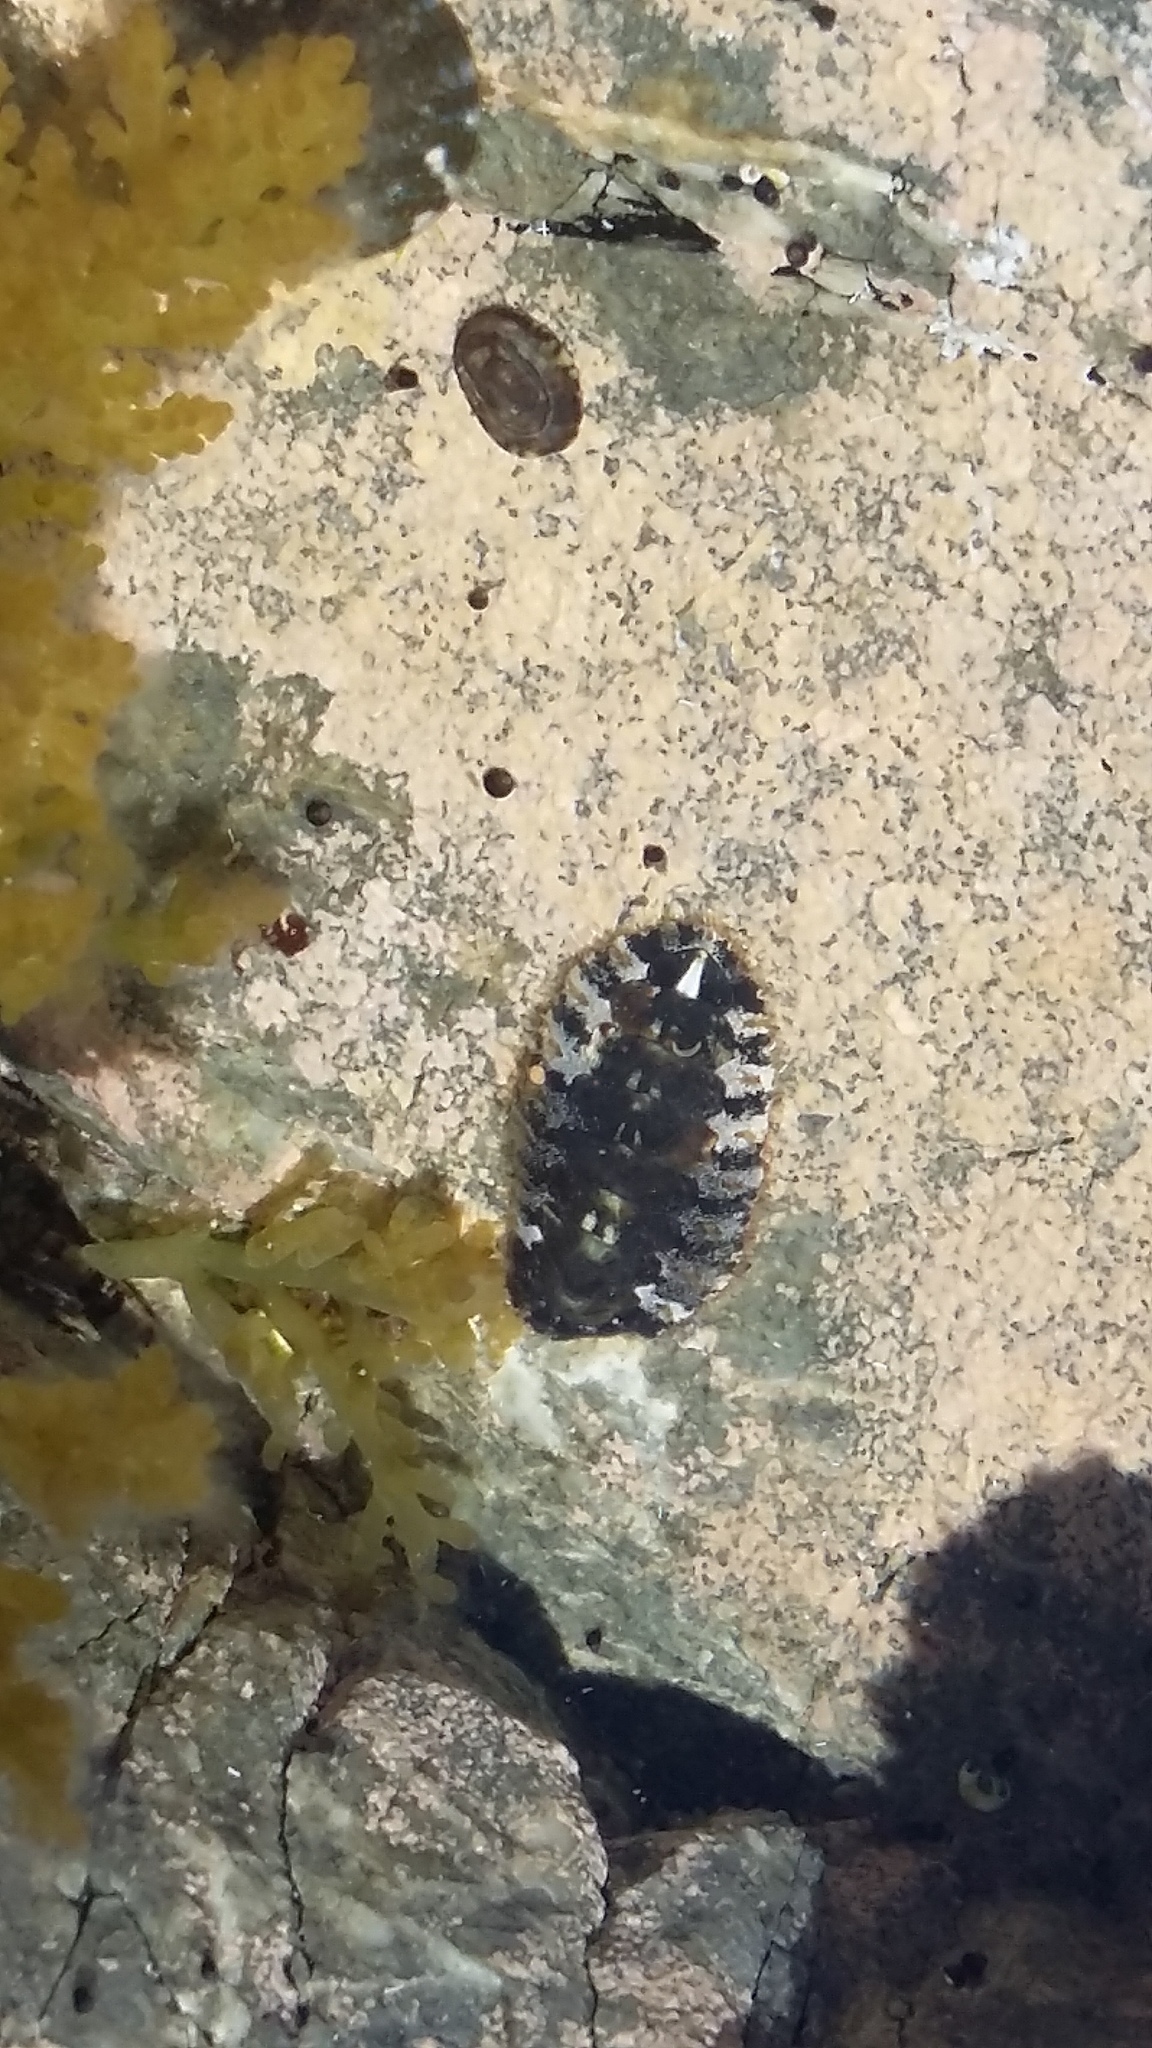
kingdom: Animalia
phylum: Mollusca
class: Polyplacophora
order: Chitonida
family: Mopaliidae
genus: Plaxiphora
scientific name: Plaxiphora caelata
